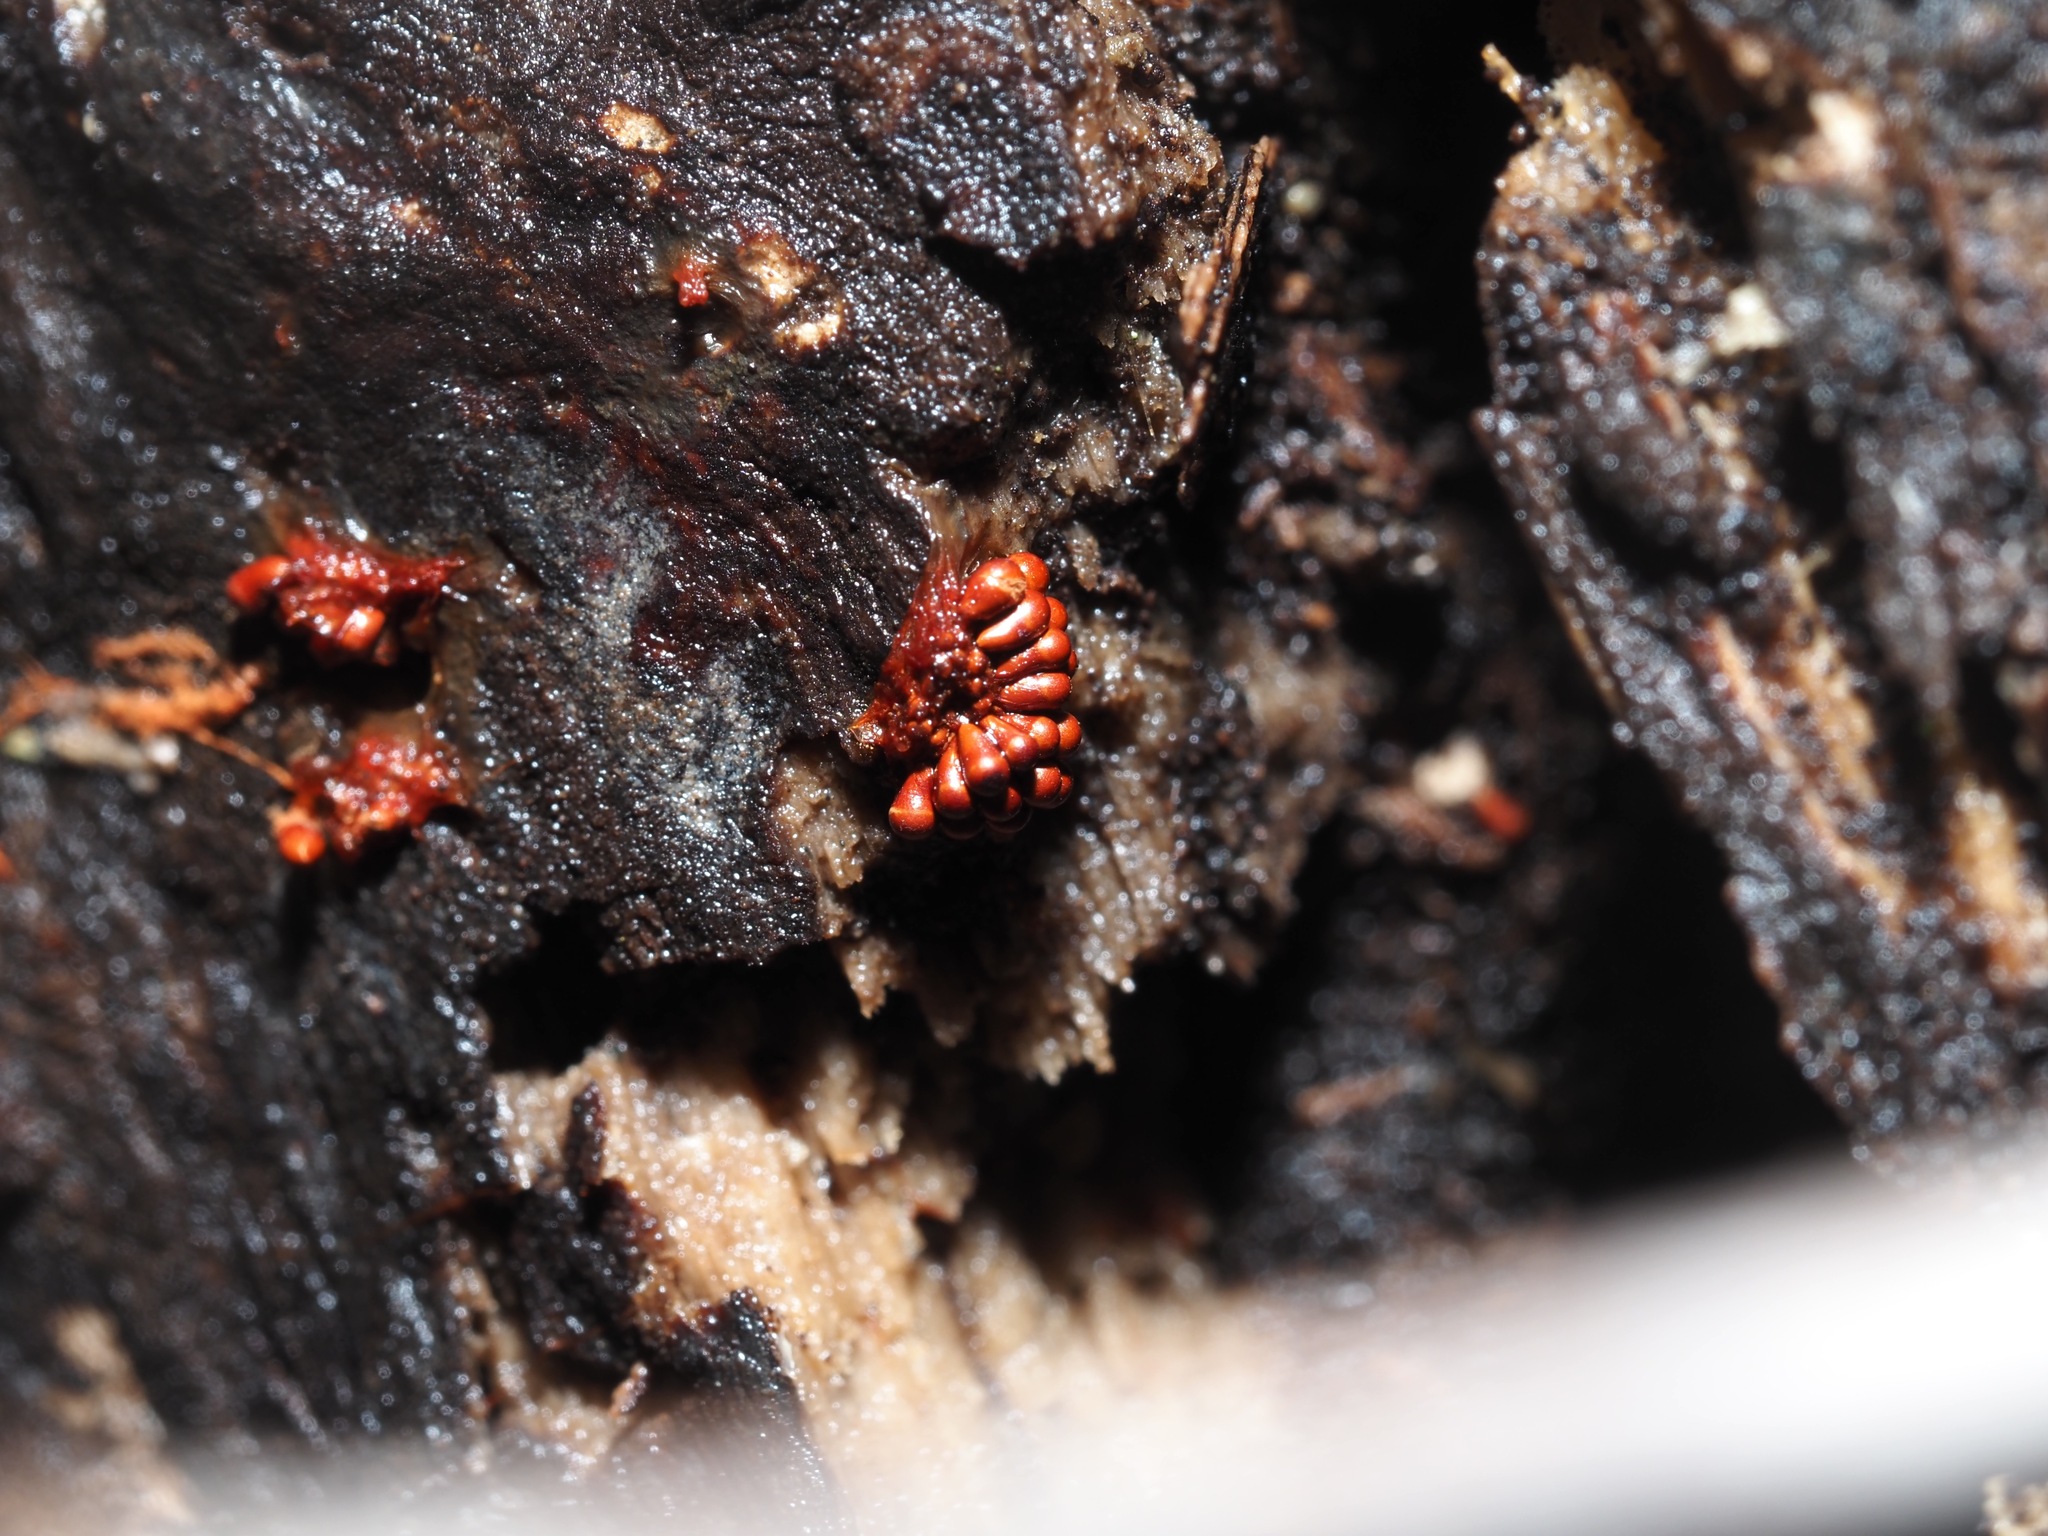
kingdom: Protozoa
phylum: Mycetozoa
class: Myxomycetes
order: Trichiales
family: Trichiaceae
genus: Metatrichia
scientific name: Metatrichia vesparia
